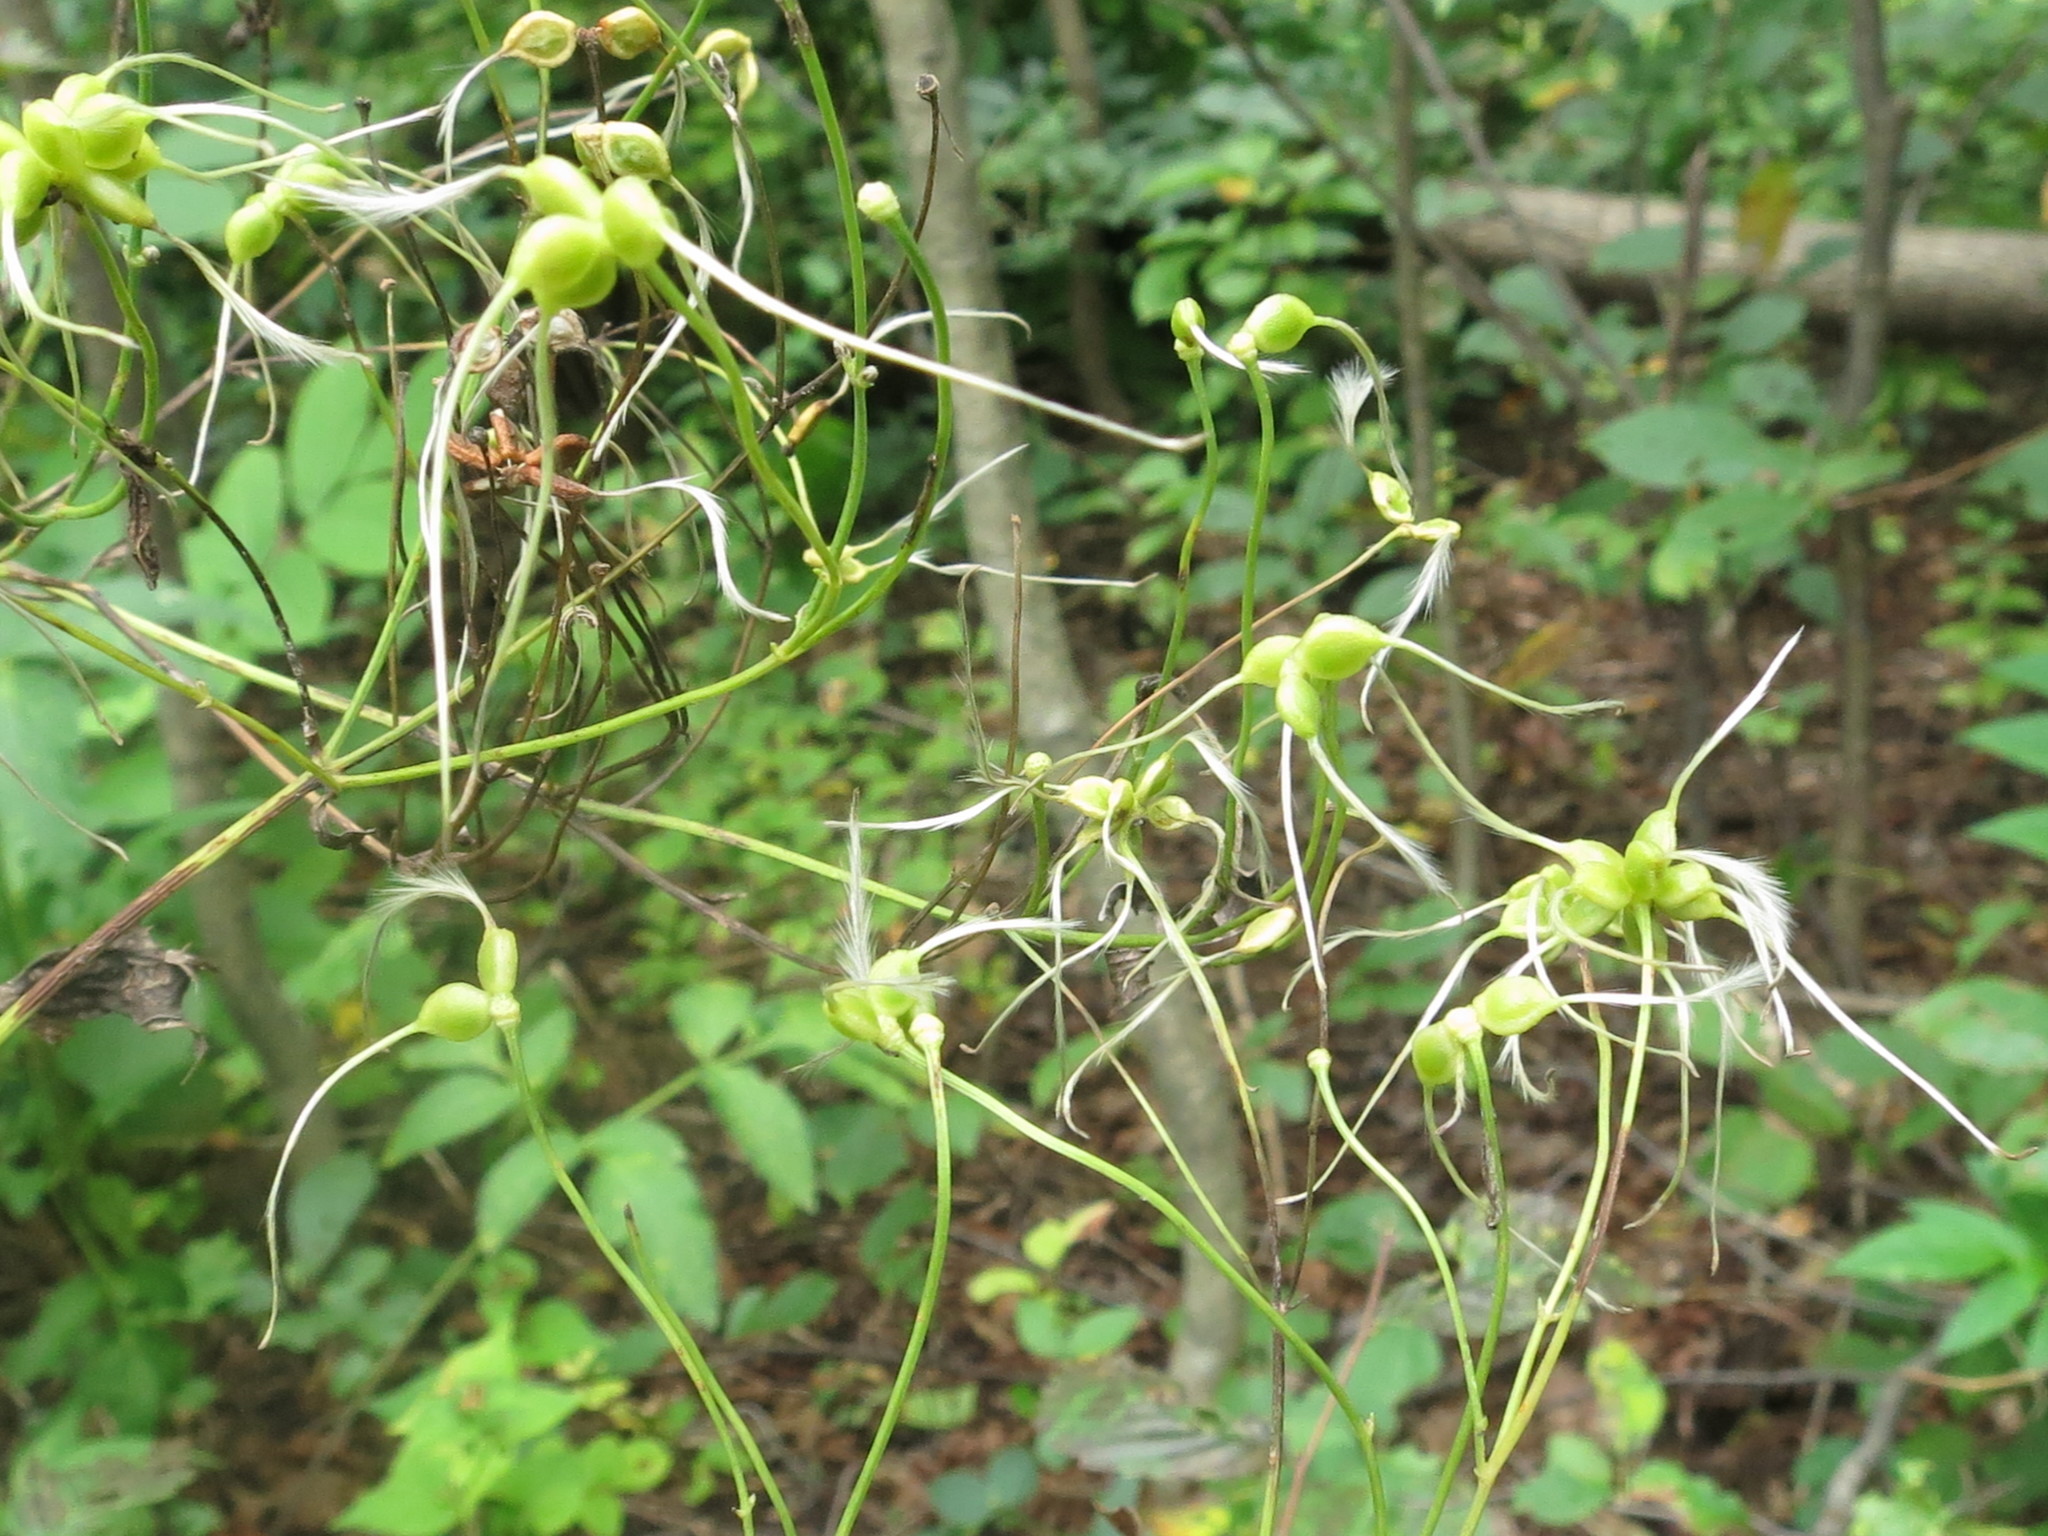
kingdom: Plantae
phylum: Tracheophyta
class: Magnoliopsida
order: Ranunculales
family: Ranunculaceae
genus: Clematis
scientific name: Clematis terniflora
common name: Sweet autumn clematis
